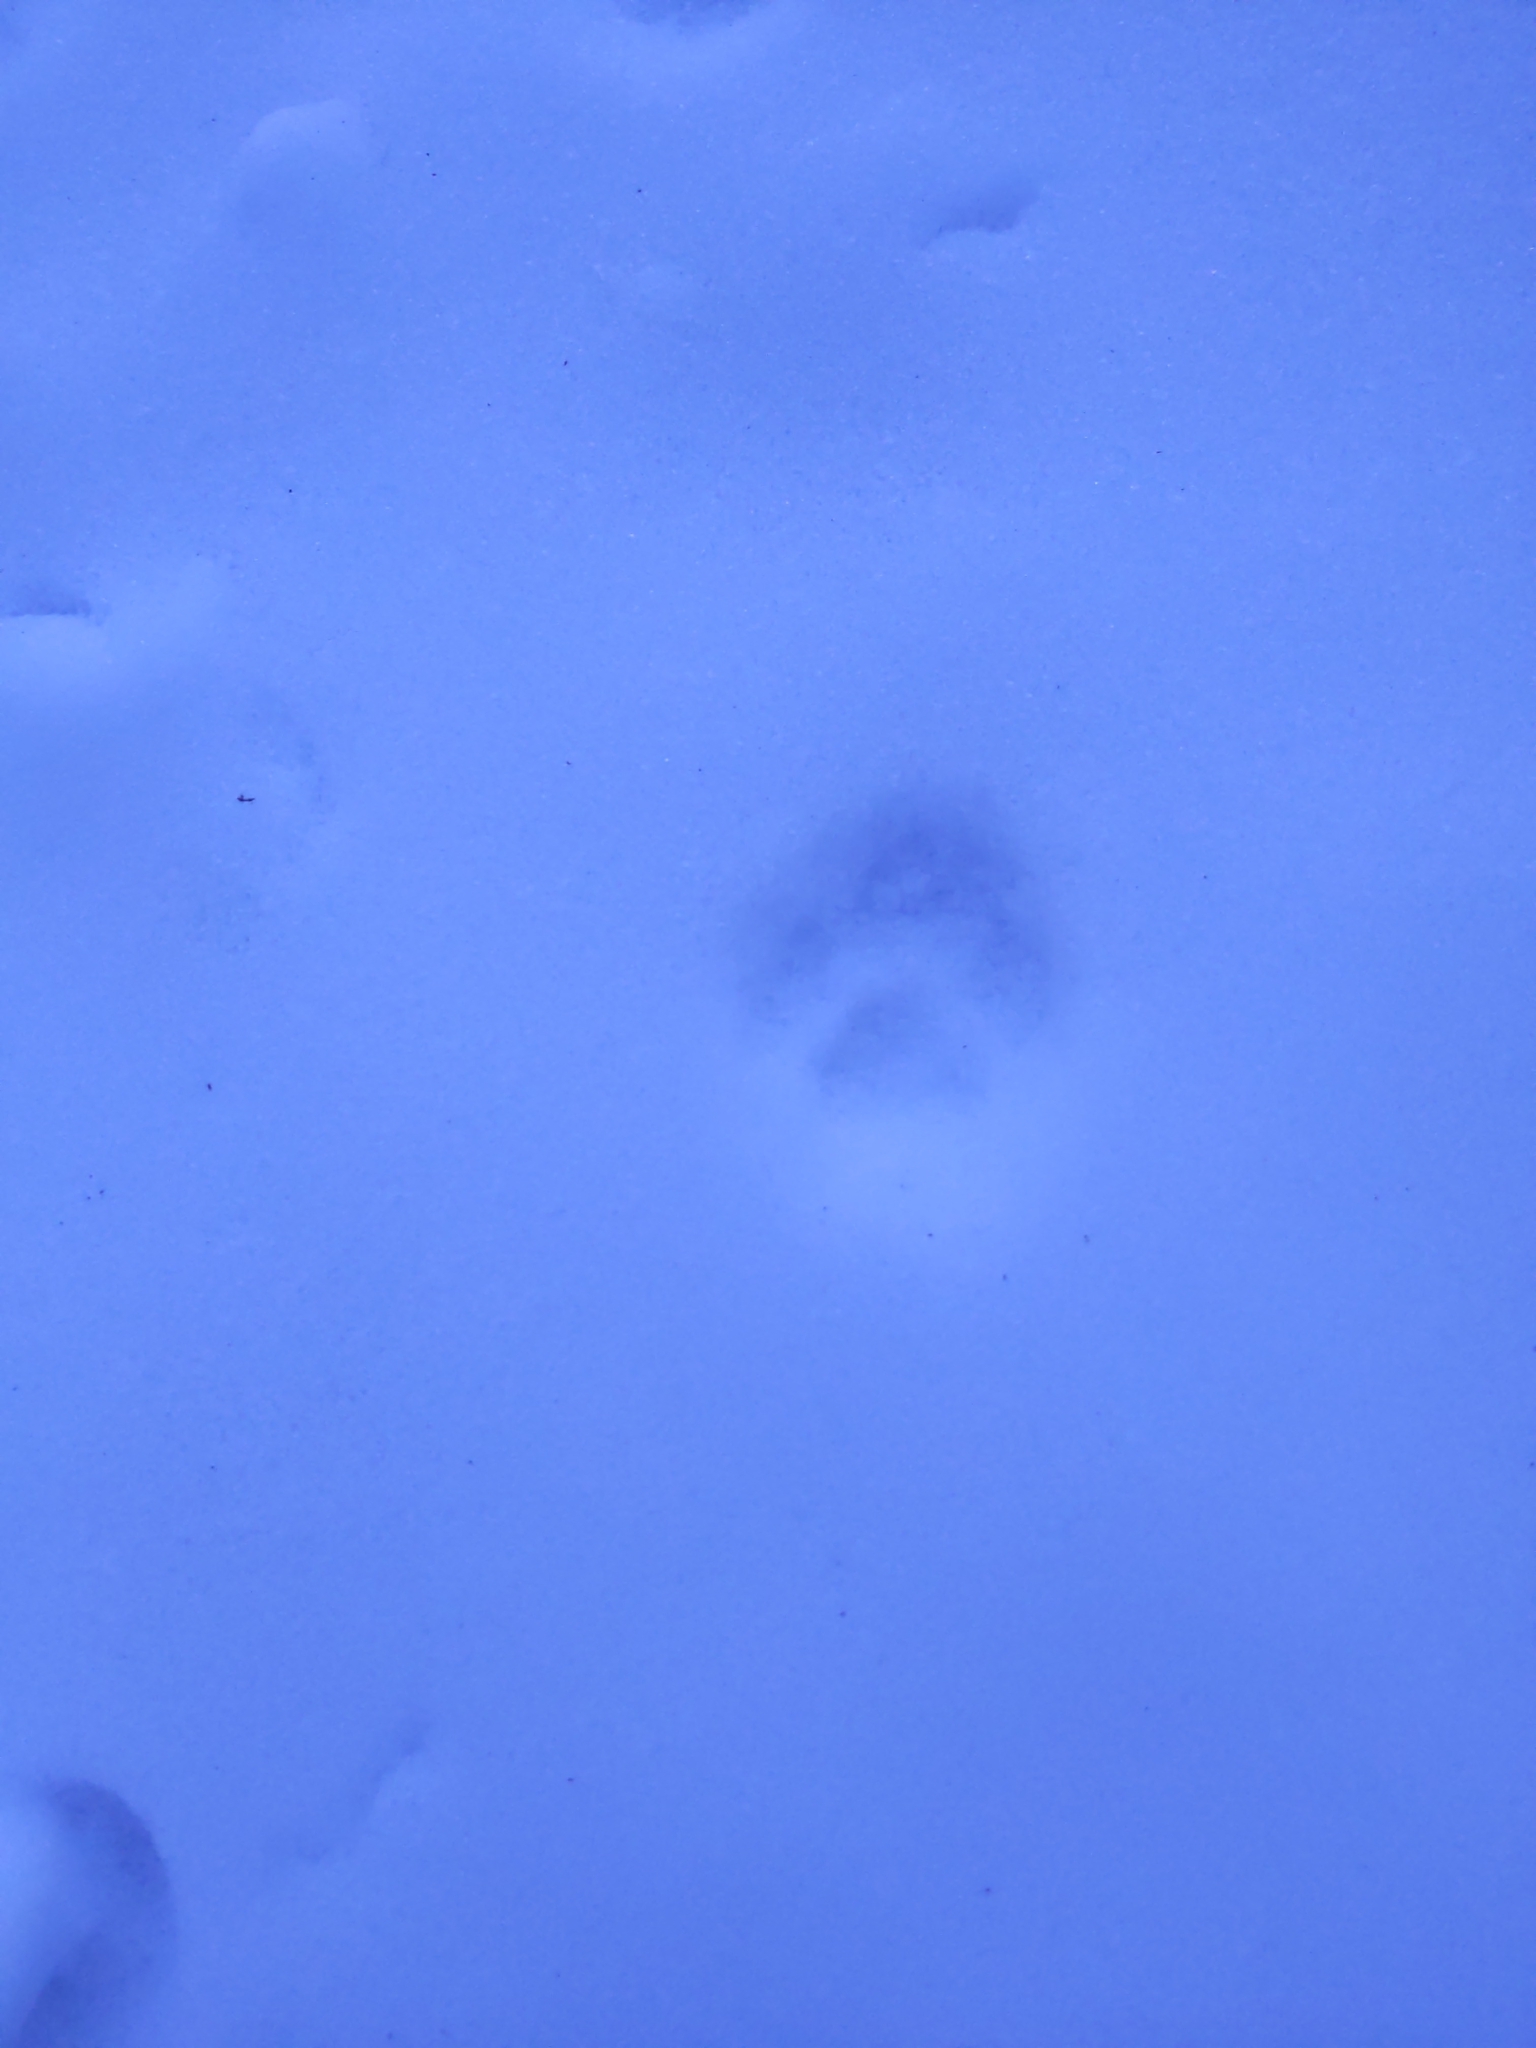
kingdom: Animalia
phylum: Chordata
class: Mammalia
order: Carnivora
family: Felidae
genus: Felis
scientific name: Felis catus
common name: Domestic cat
